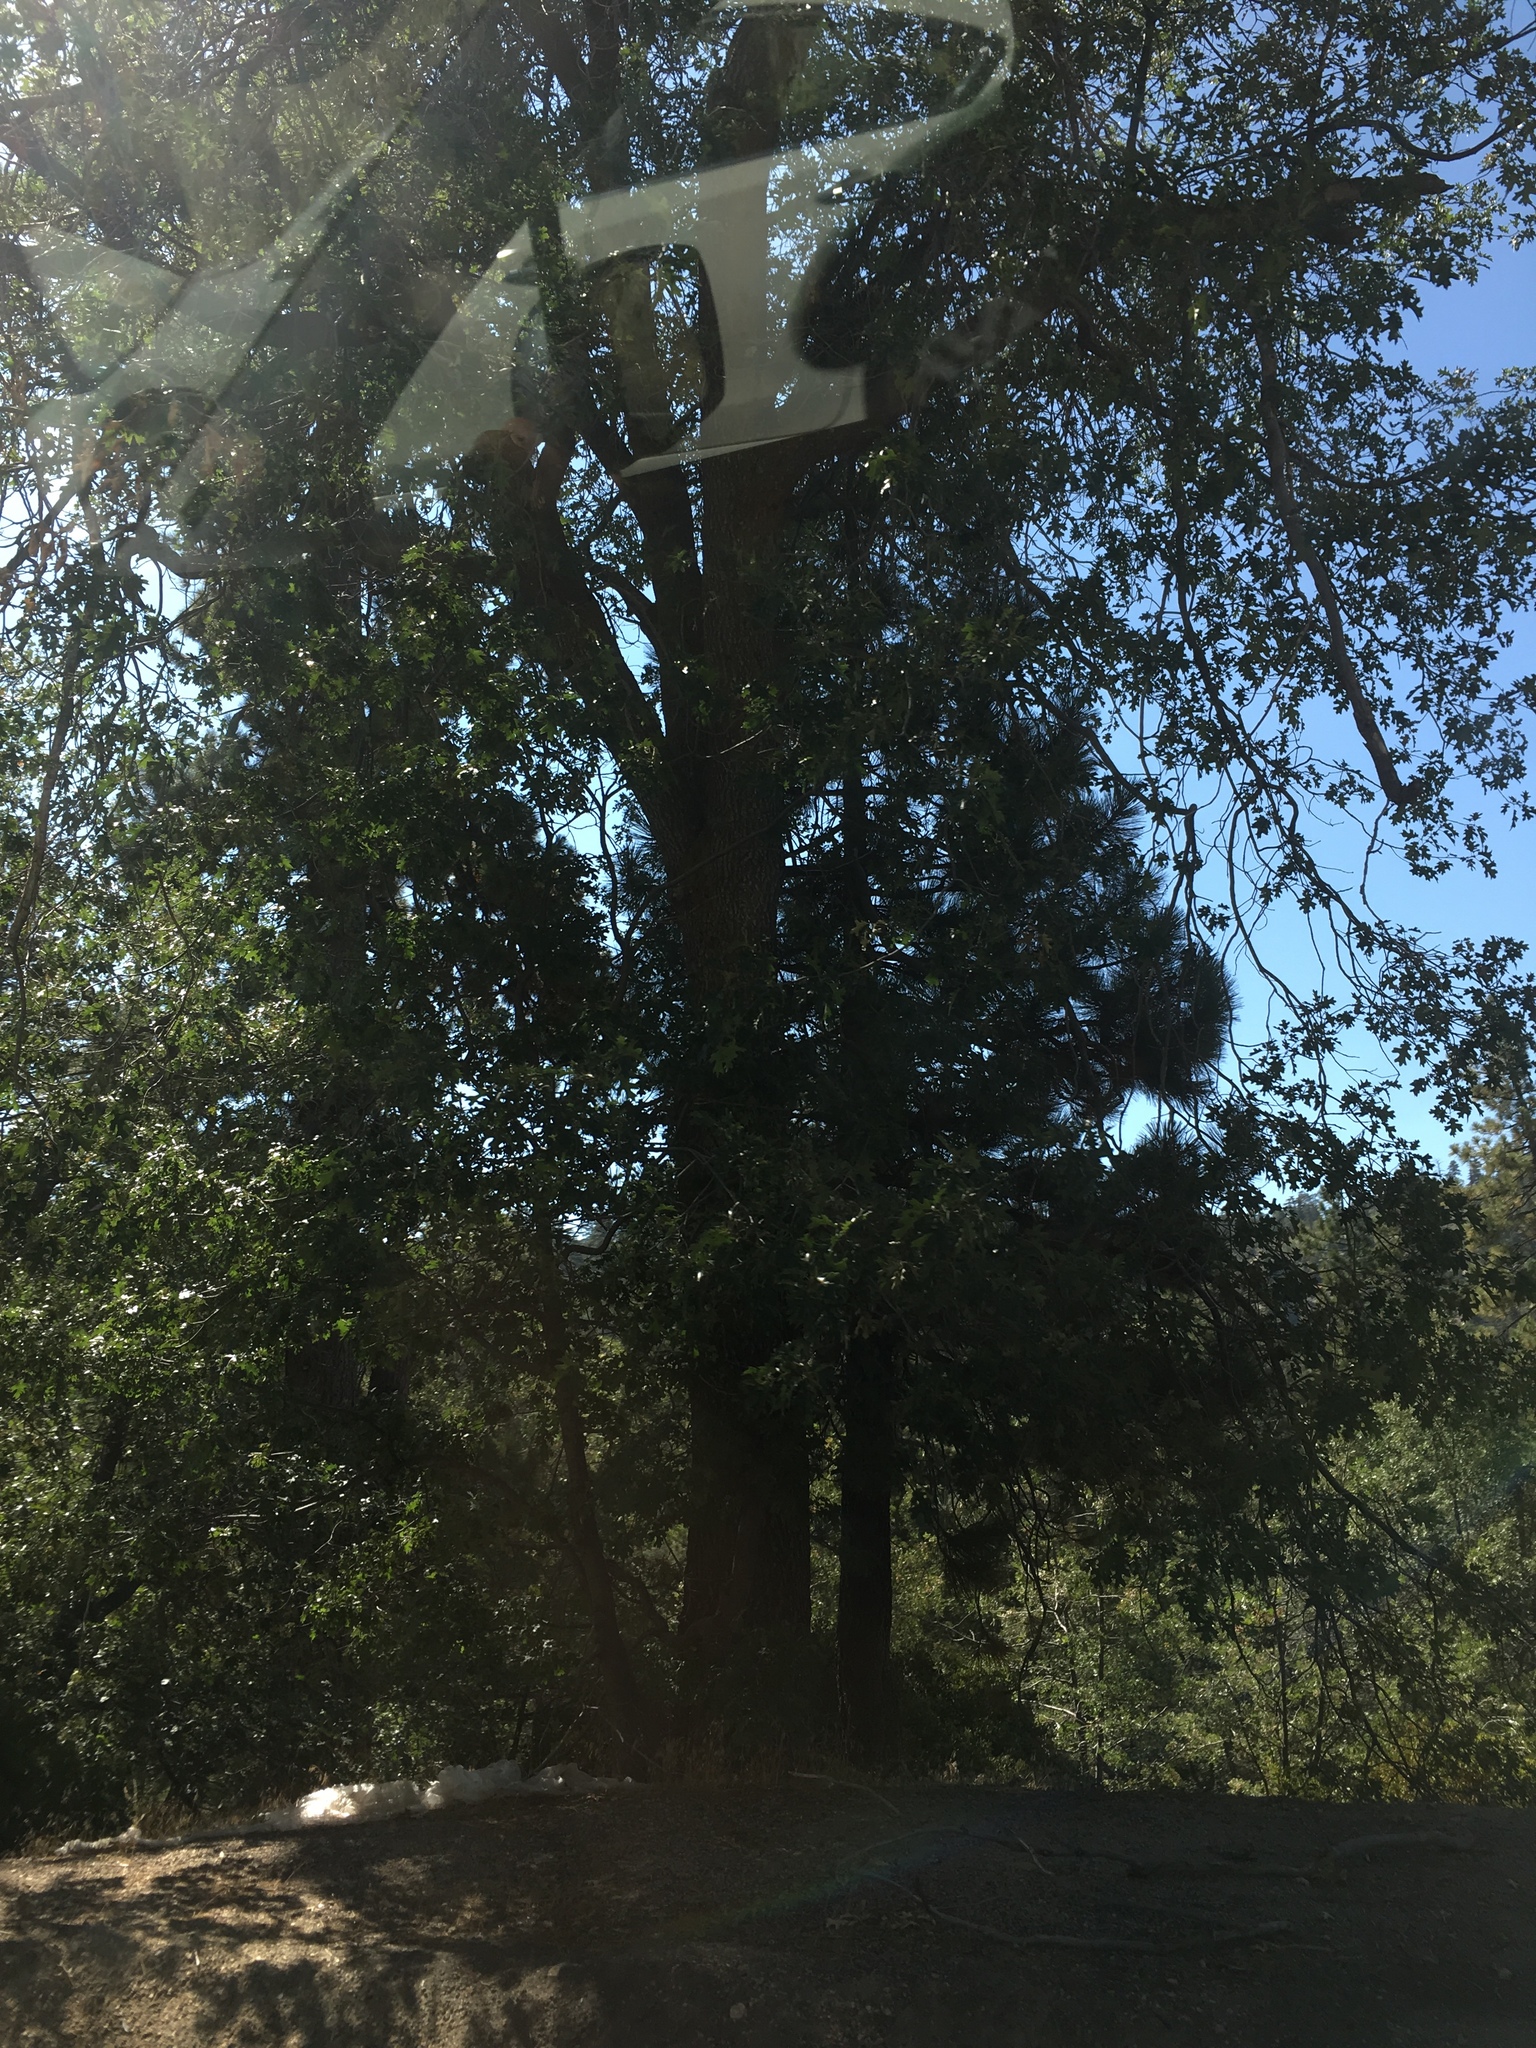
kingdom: Plantae
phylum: Tracheophyta
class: Magnoliopsida
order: Fagales
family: Fagaceae
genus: Quercus
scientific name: Quercus kelloggii
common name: California black oak
